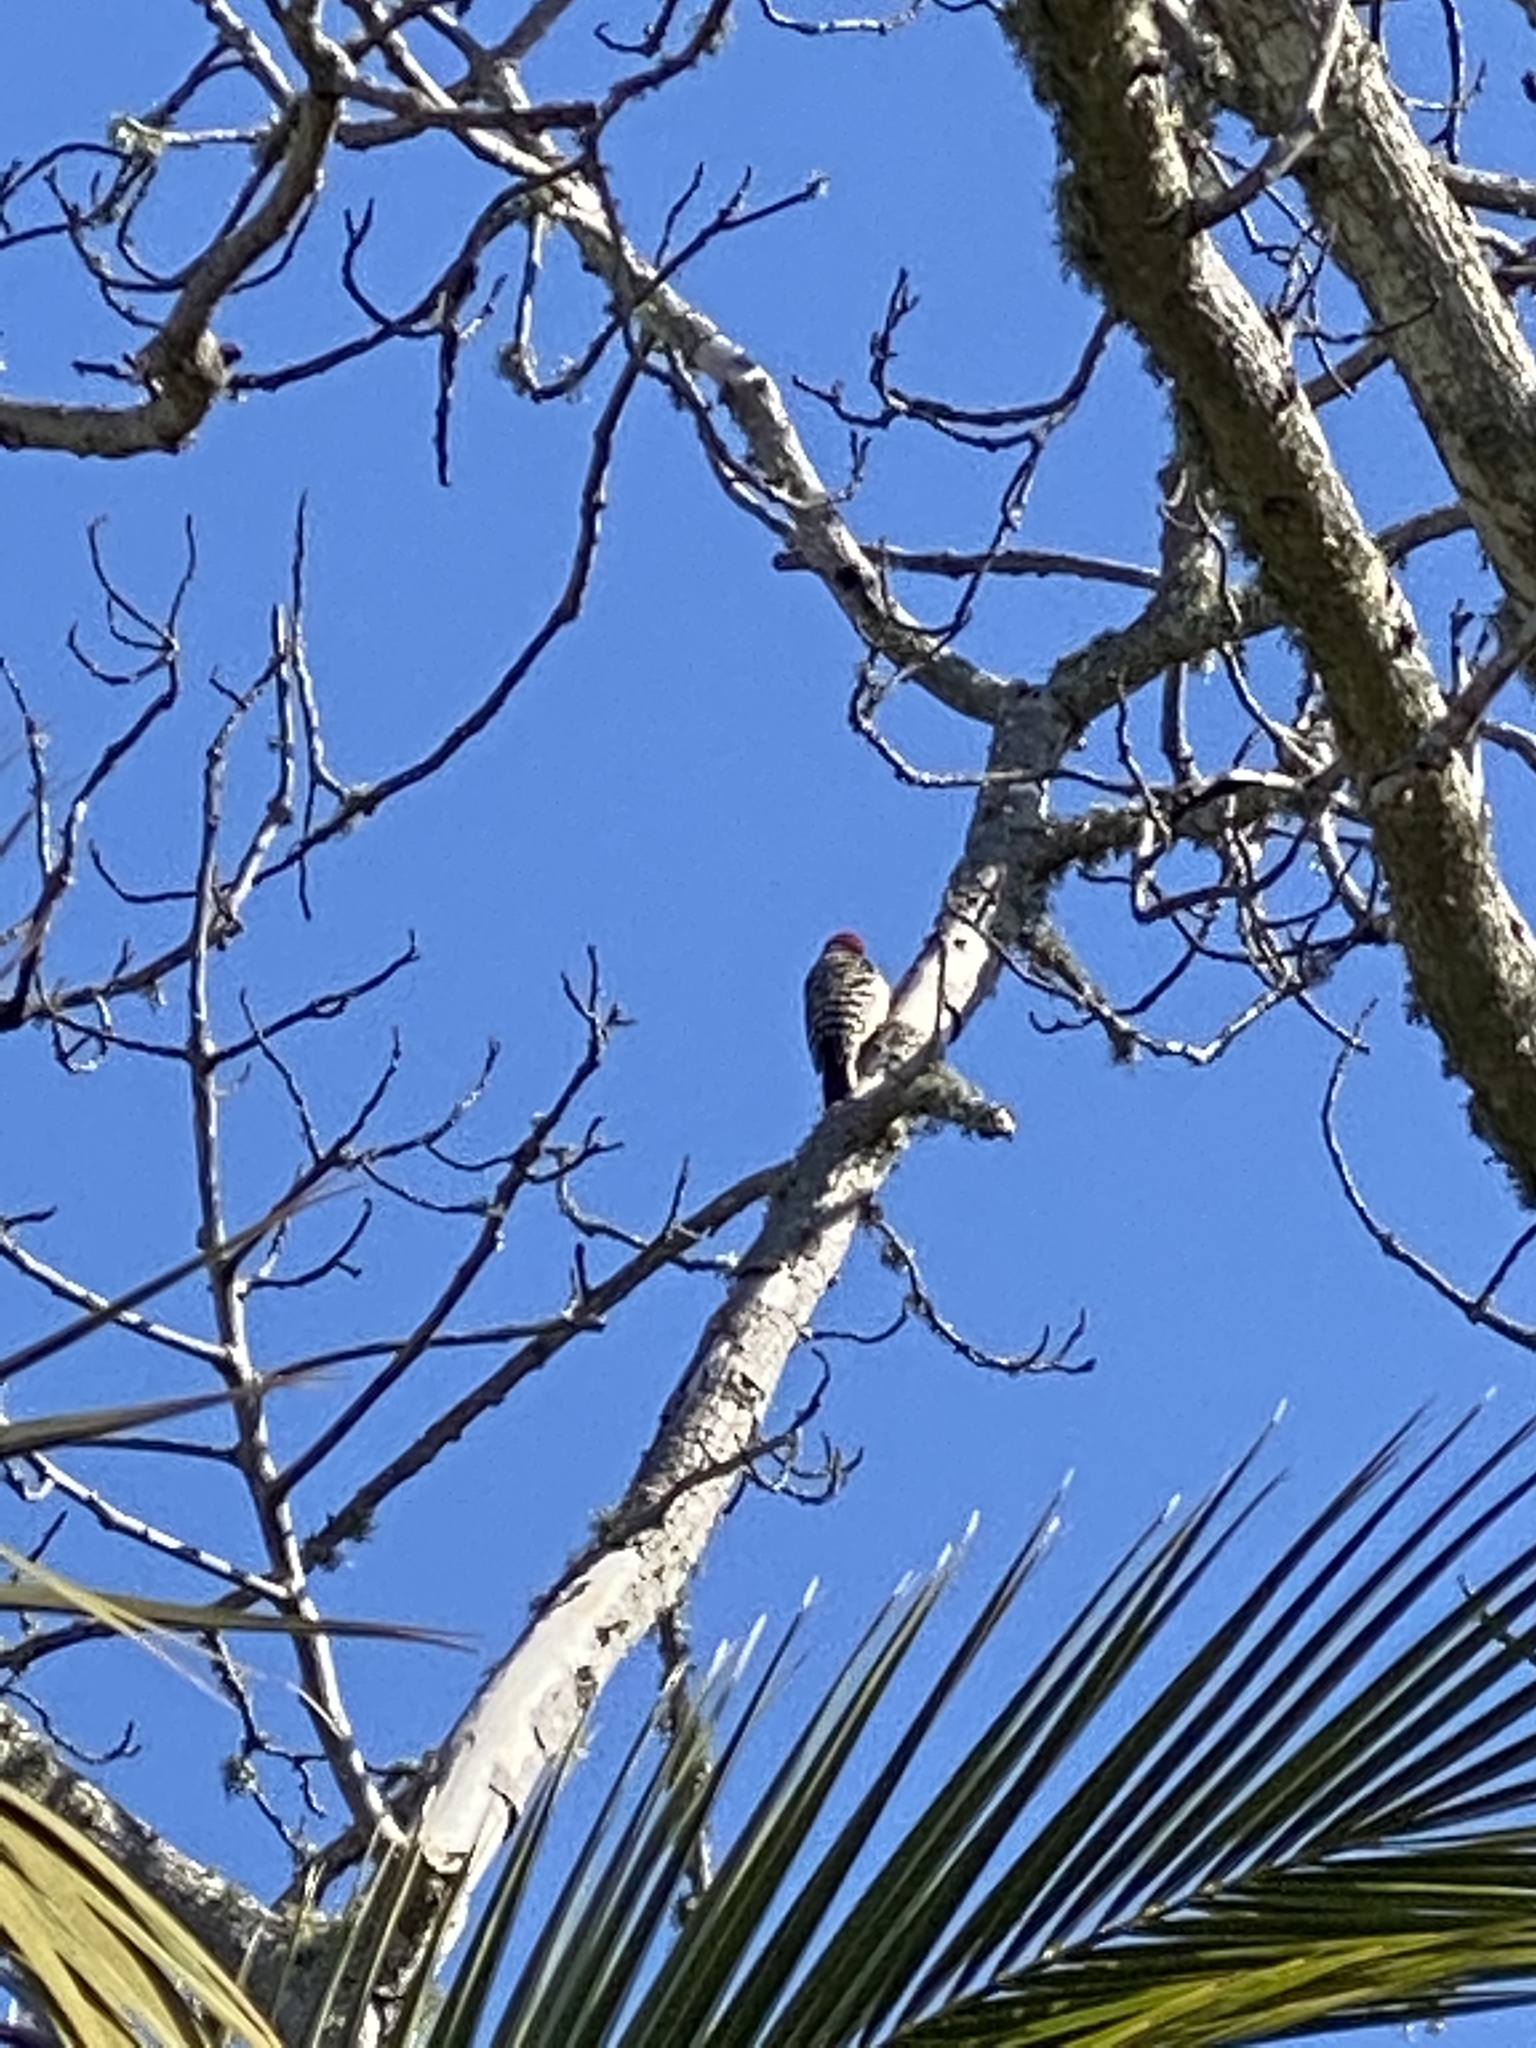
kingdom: Animalia
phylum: Chordata
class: Aves
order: Piciformes
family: Picidae
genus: Dryobates
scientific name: Dryobates nuttallii
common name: Nuttall's woodpecker
